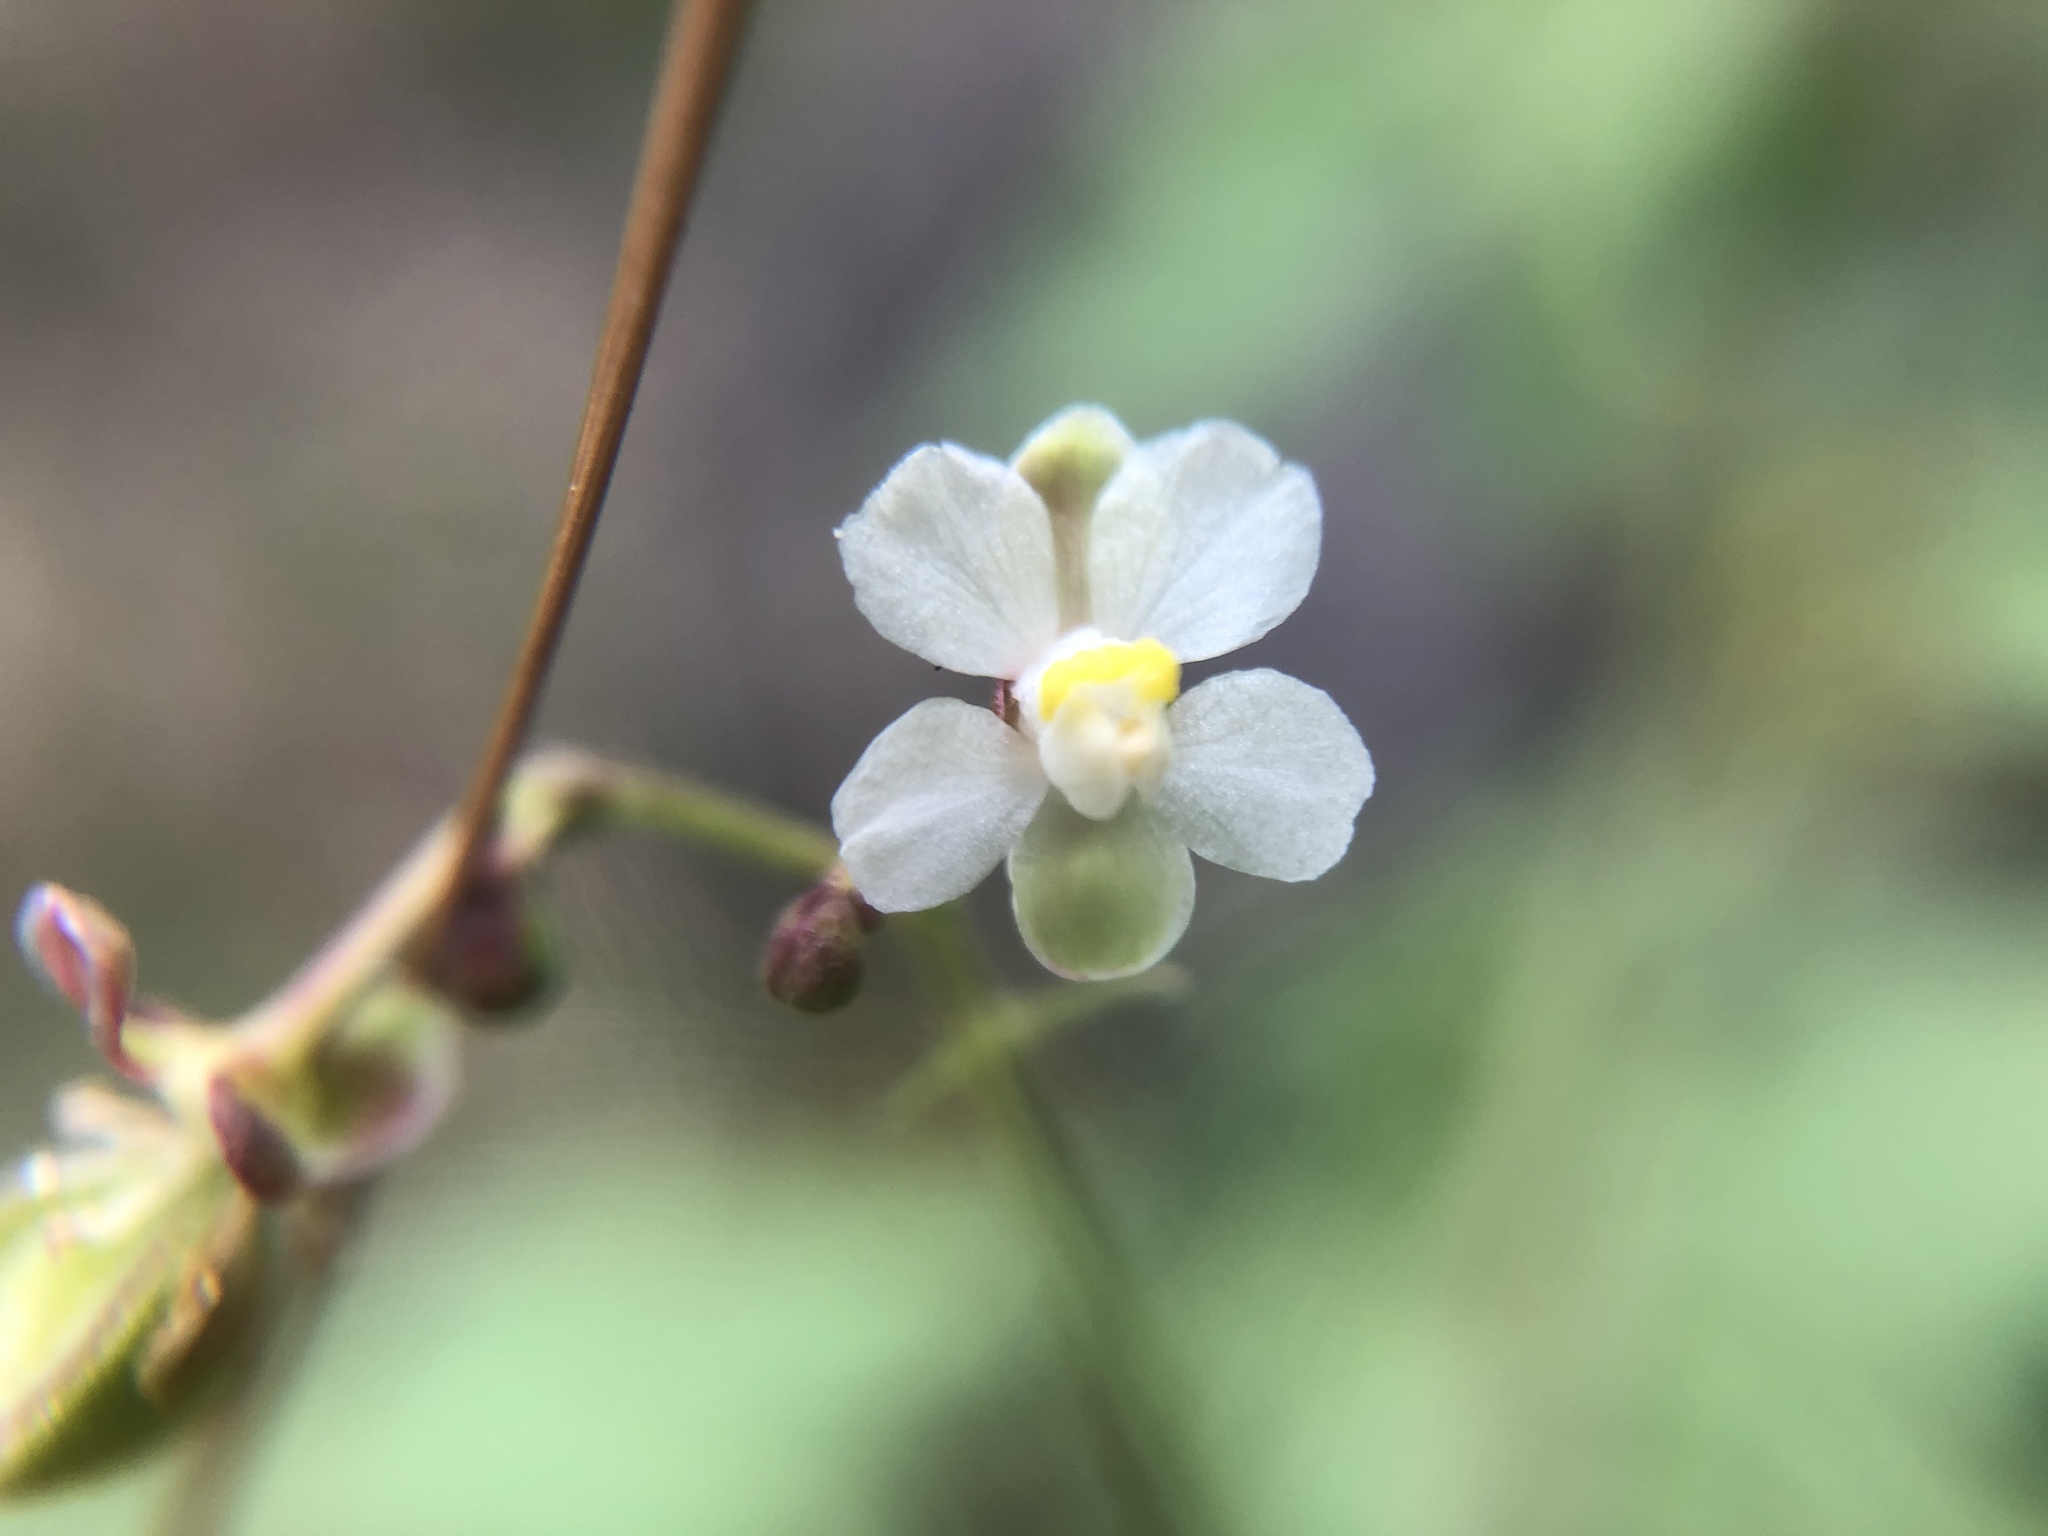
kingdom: Plantae
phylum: Tracheophyta
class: Magnoliopsida
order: Sapindales
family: Sapindaceae
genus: Cardiospermum
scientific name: Cardiospermum halicacabum
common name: Balloon vine
